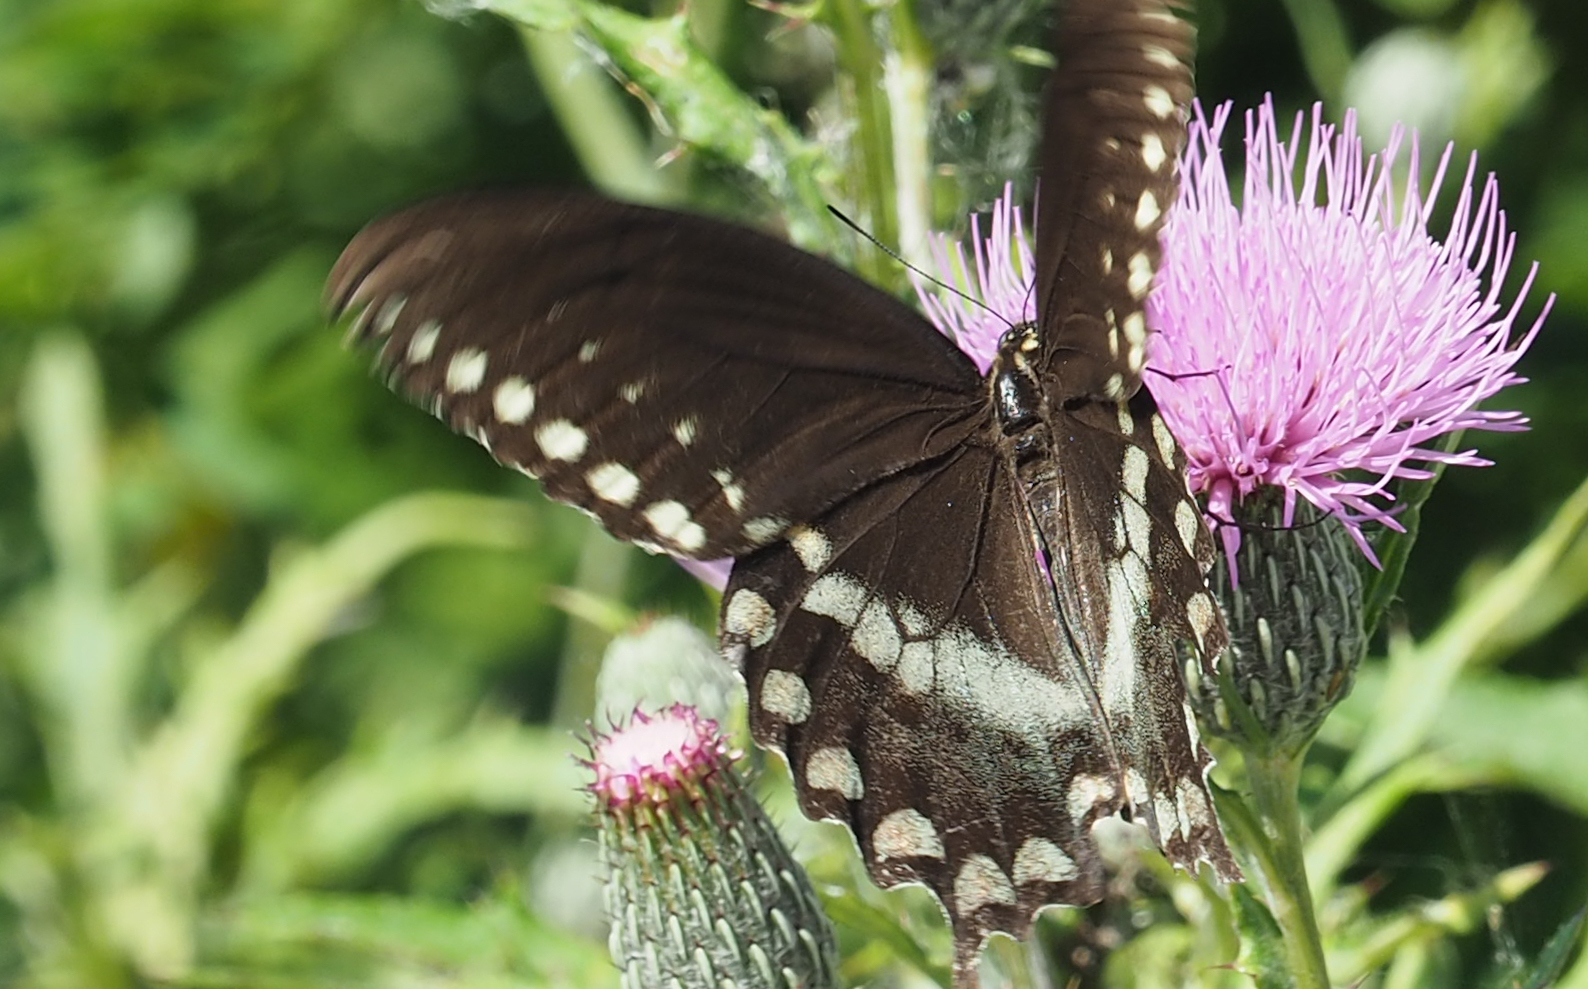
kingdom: Animalia
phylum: Arthropoda
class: Insecta
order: Lepidoptera
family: Papilionidae
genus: Papilio
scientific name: Papilio troilus
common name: Spicebush swallowtail
